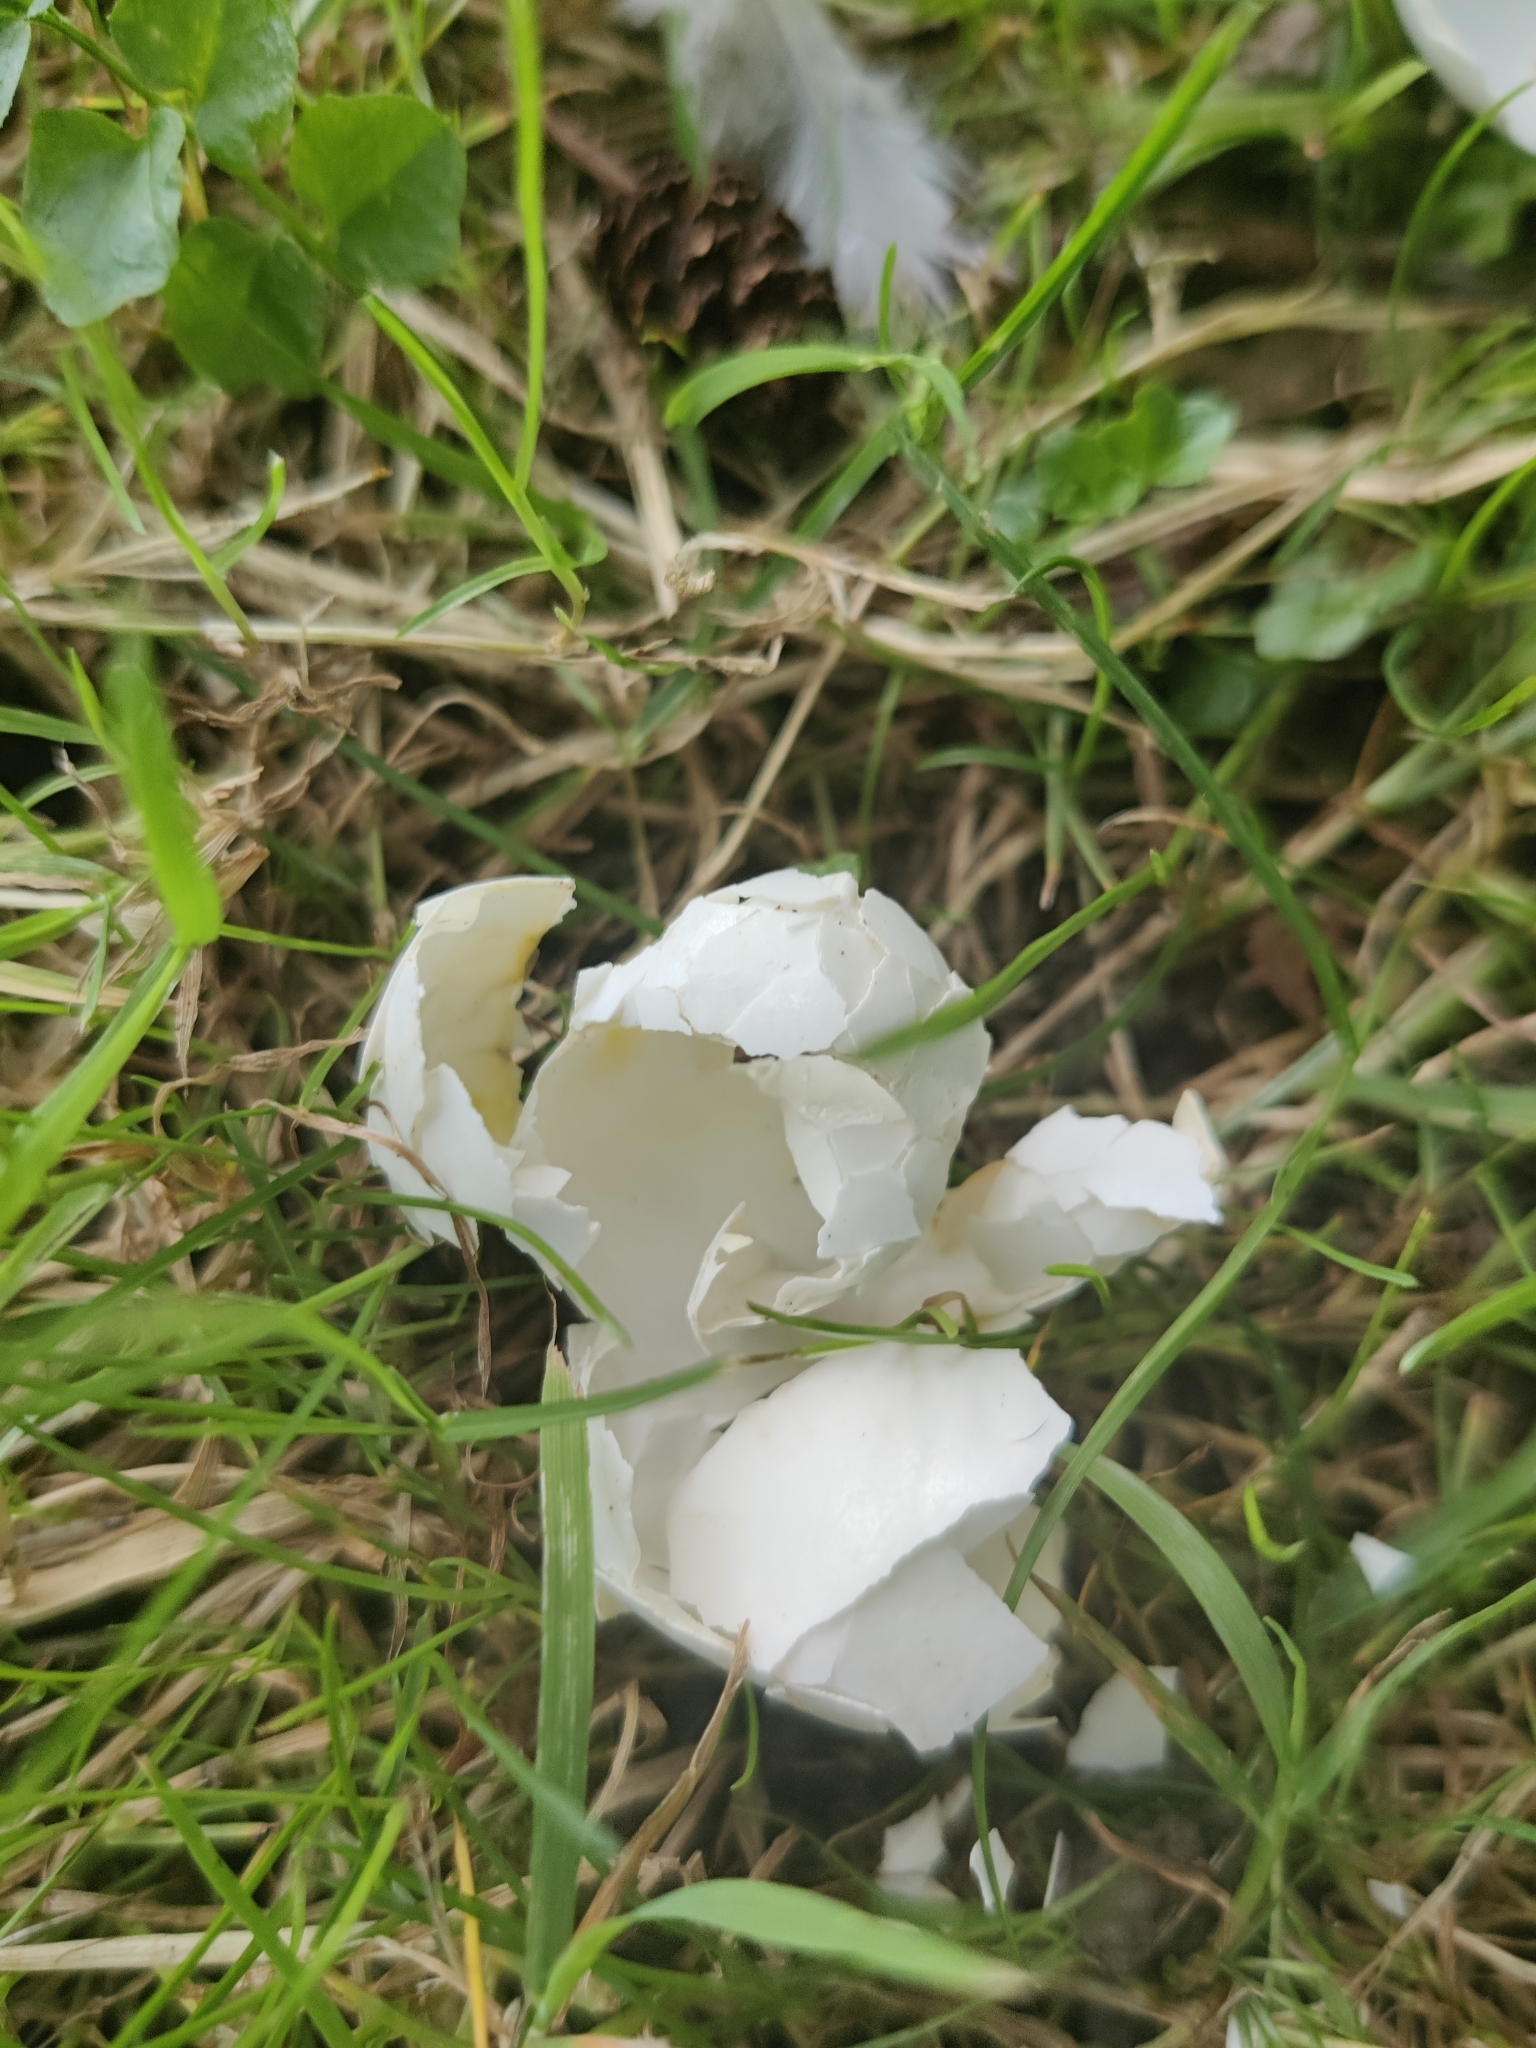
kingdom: Animalia
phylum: Chordata
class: Aves
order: Columbiformes
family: Columbidae
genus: Columba
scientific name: Columba palumbus
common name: Common wood pigeon
